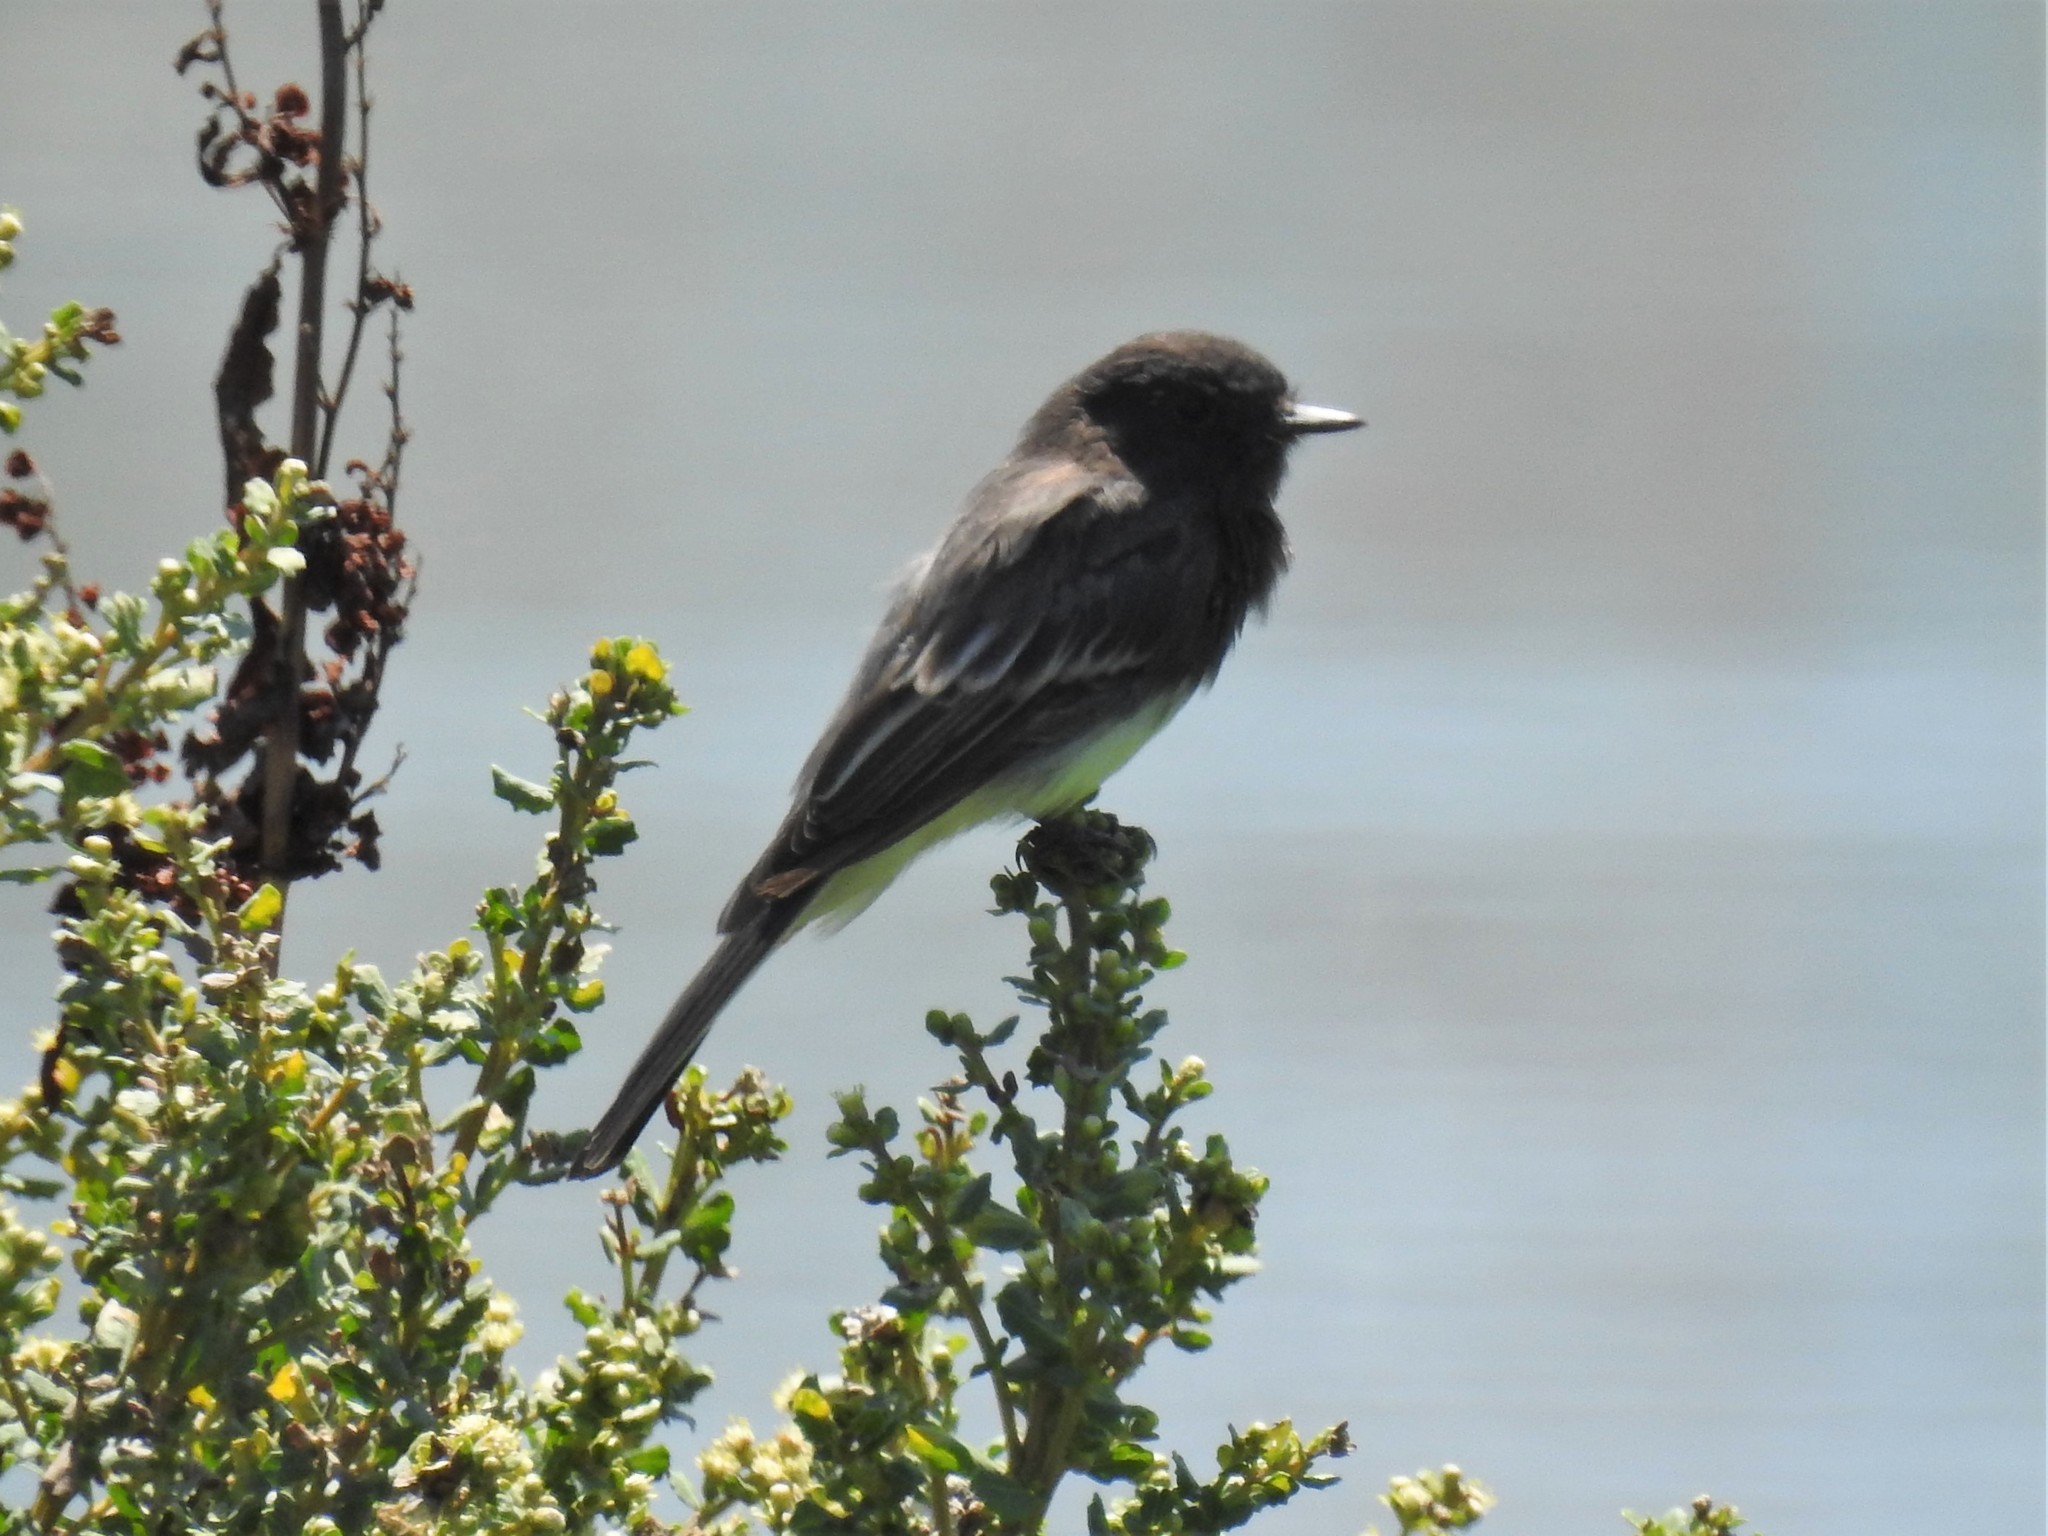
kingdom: Animalia
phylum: Chordata
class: Aves
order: Passeriformes
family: Tyrannidae
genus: Sayornis
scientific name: Sayornis nigricans
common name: Black phoebe
